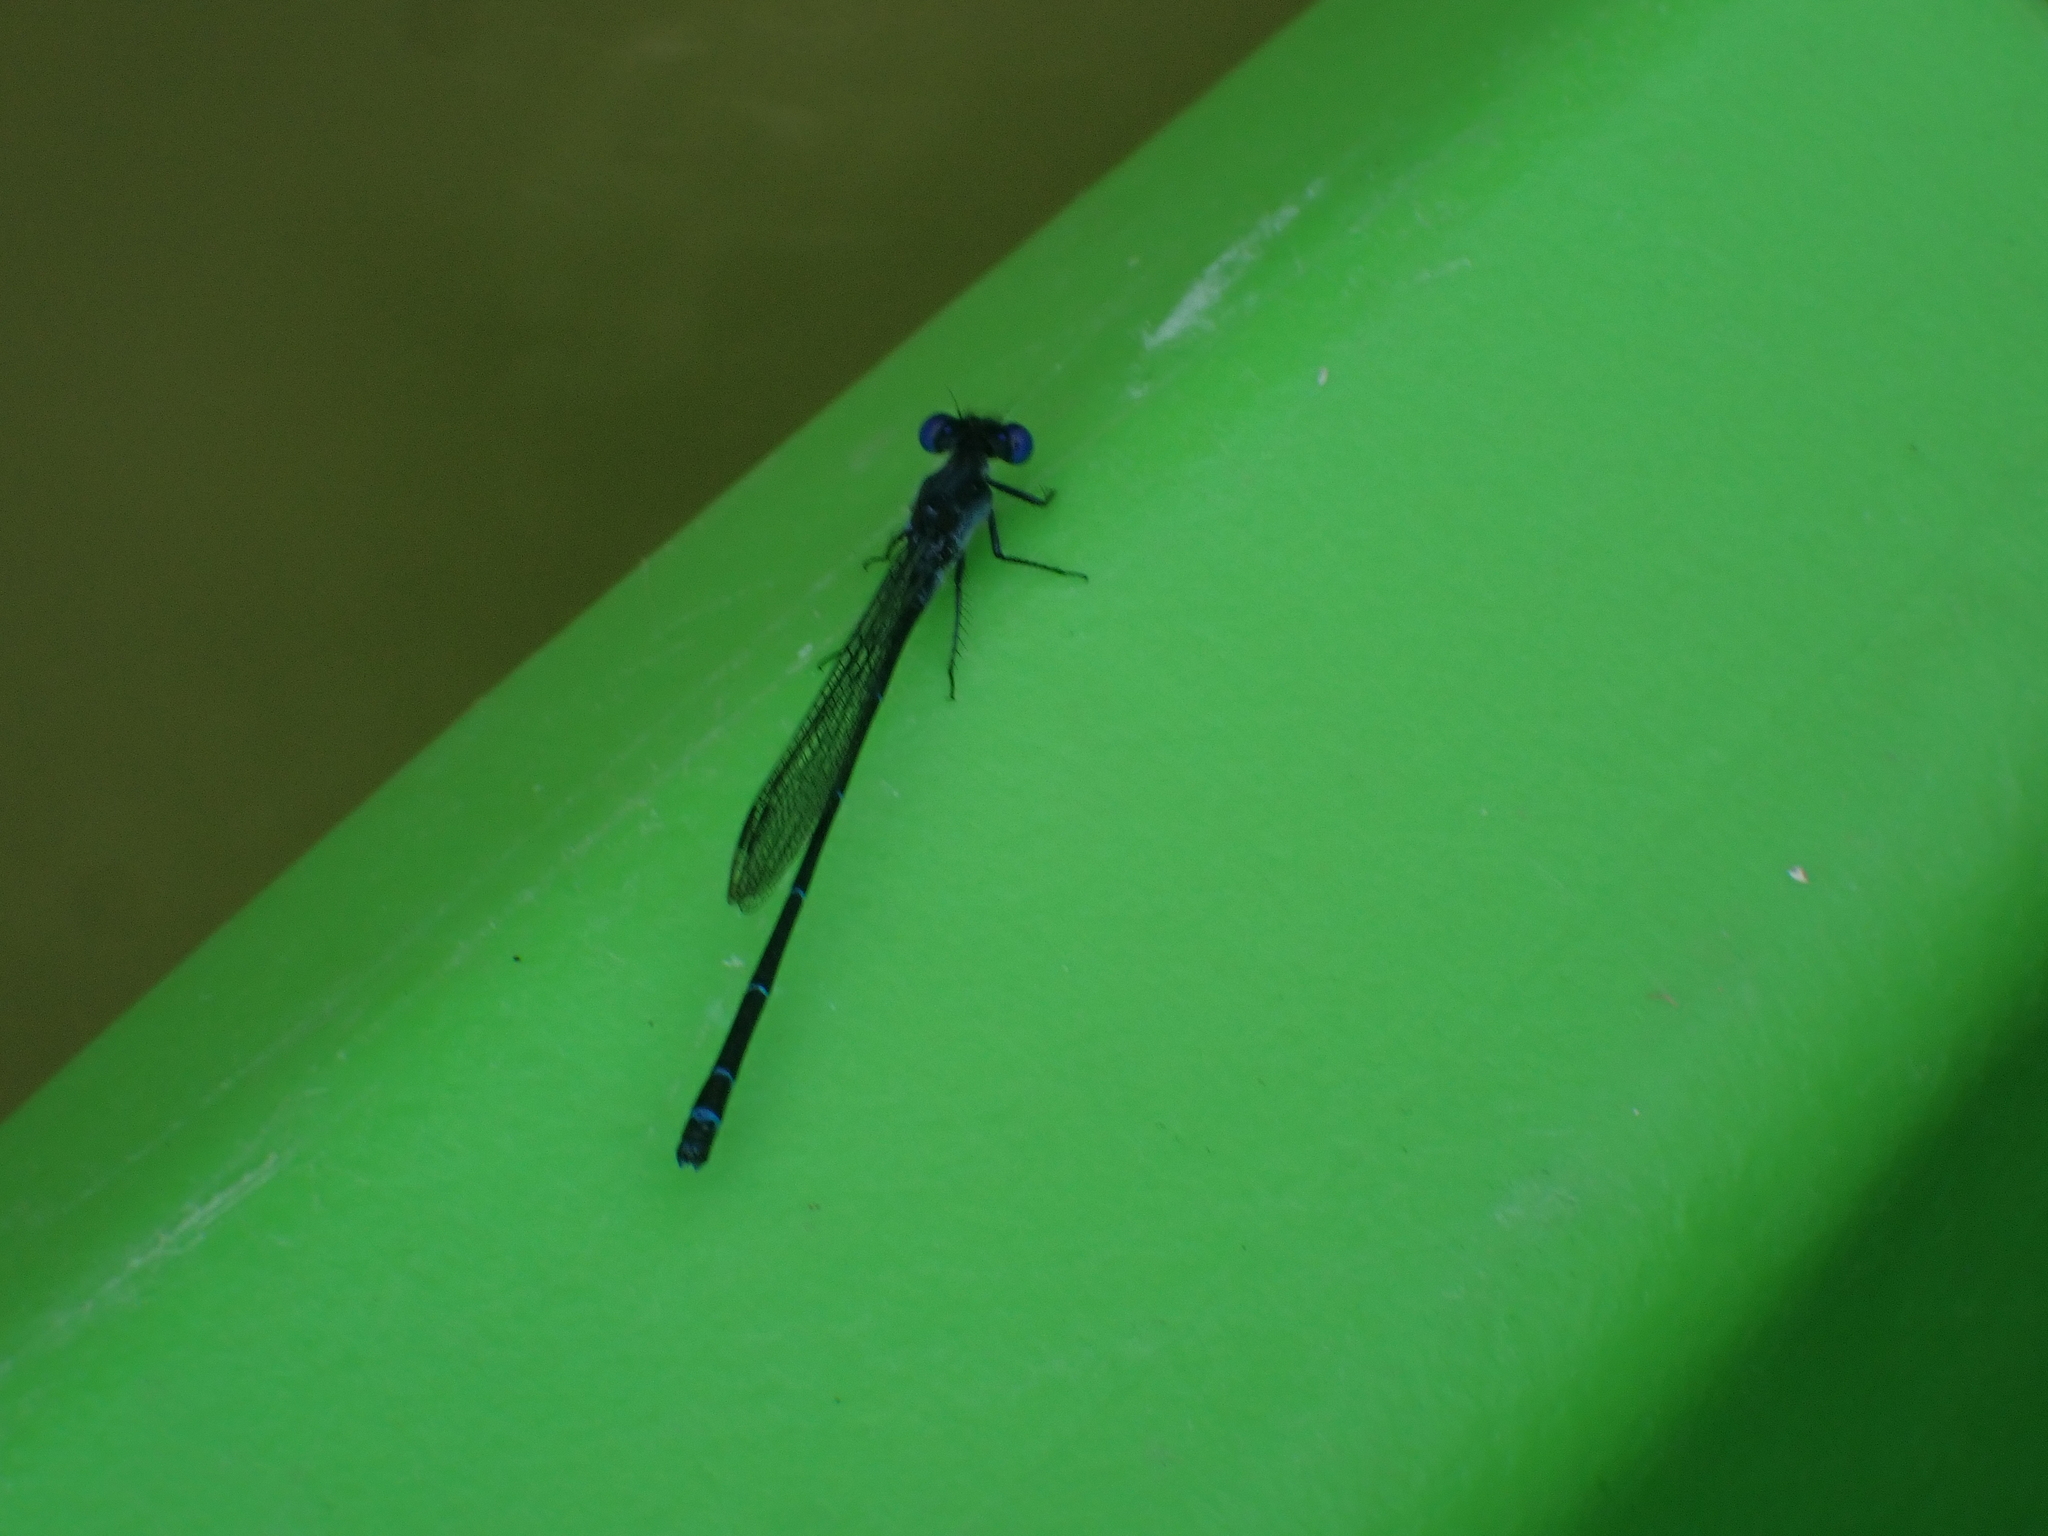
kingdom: Animalia
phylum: Arthropoda
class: Insecta
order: Odonata
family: Coenagrionidae
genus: Argia
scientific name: Argia translata
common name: Dusky dancer
